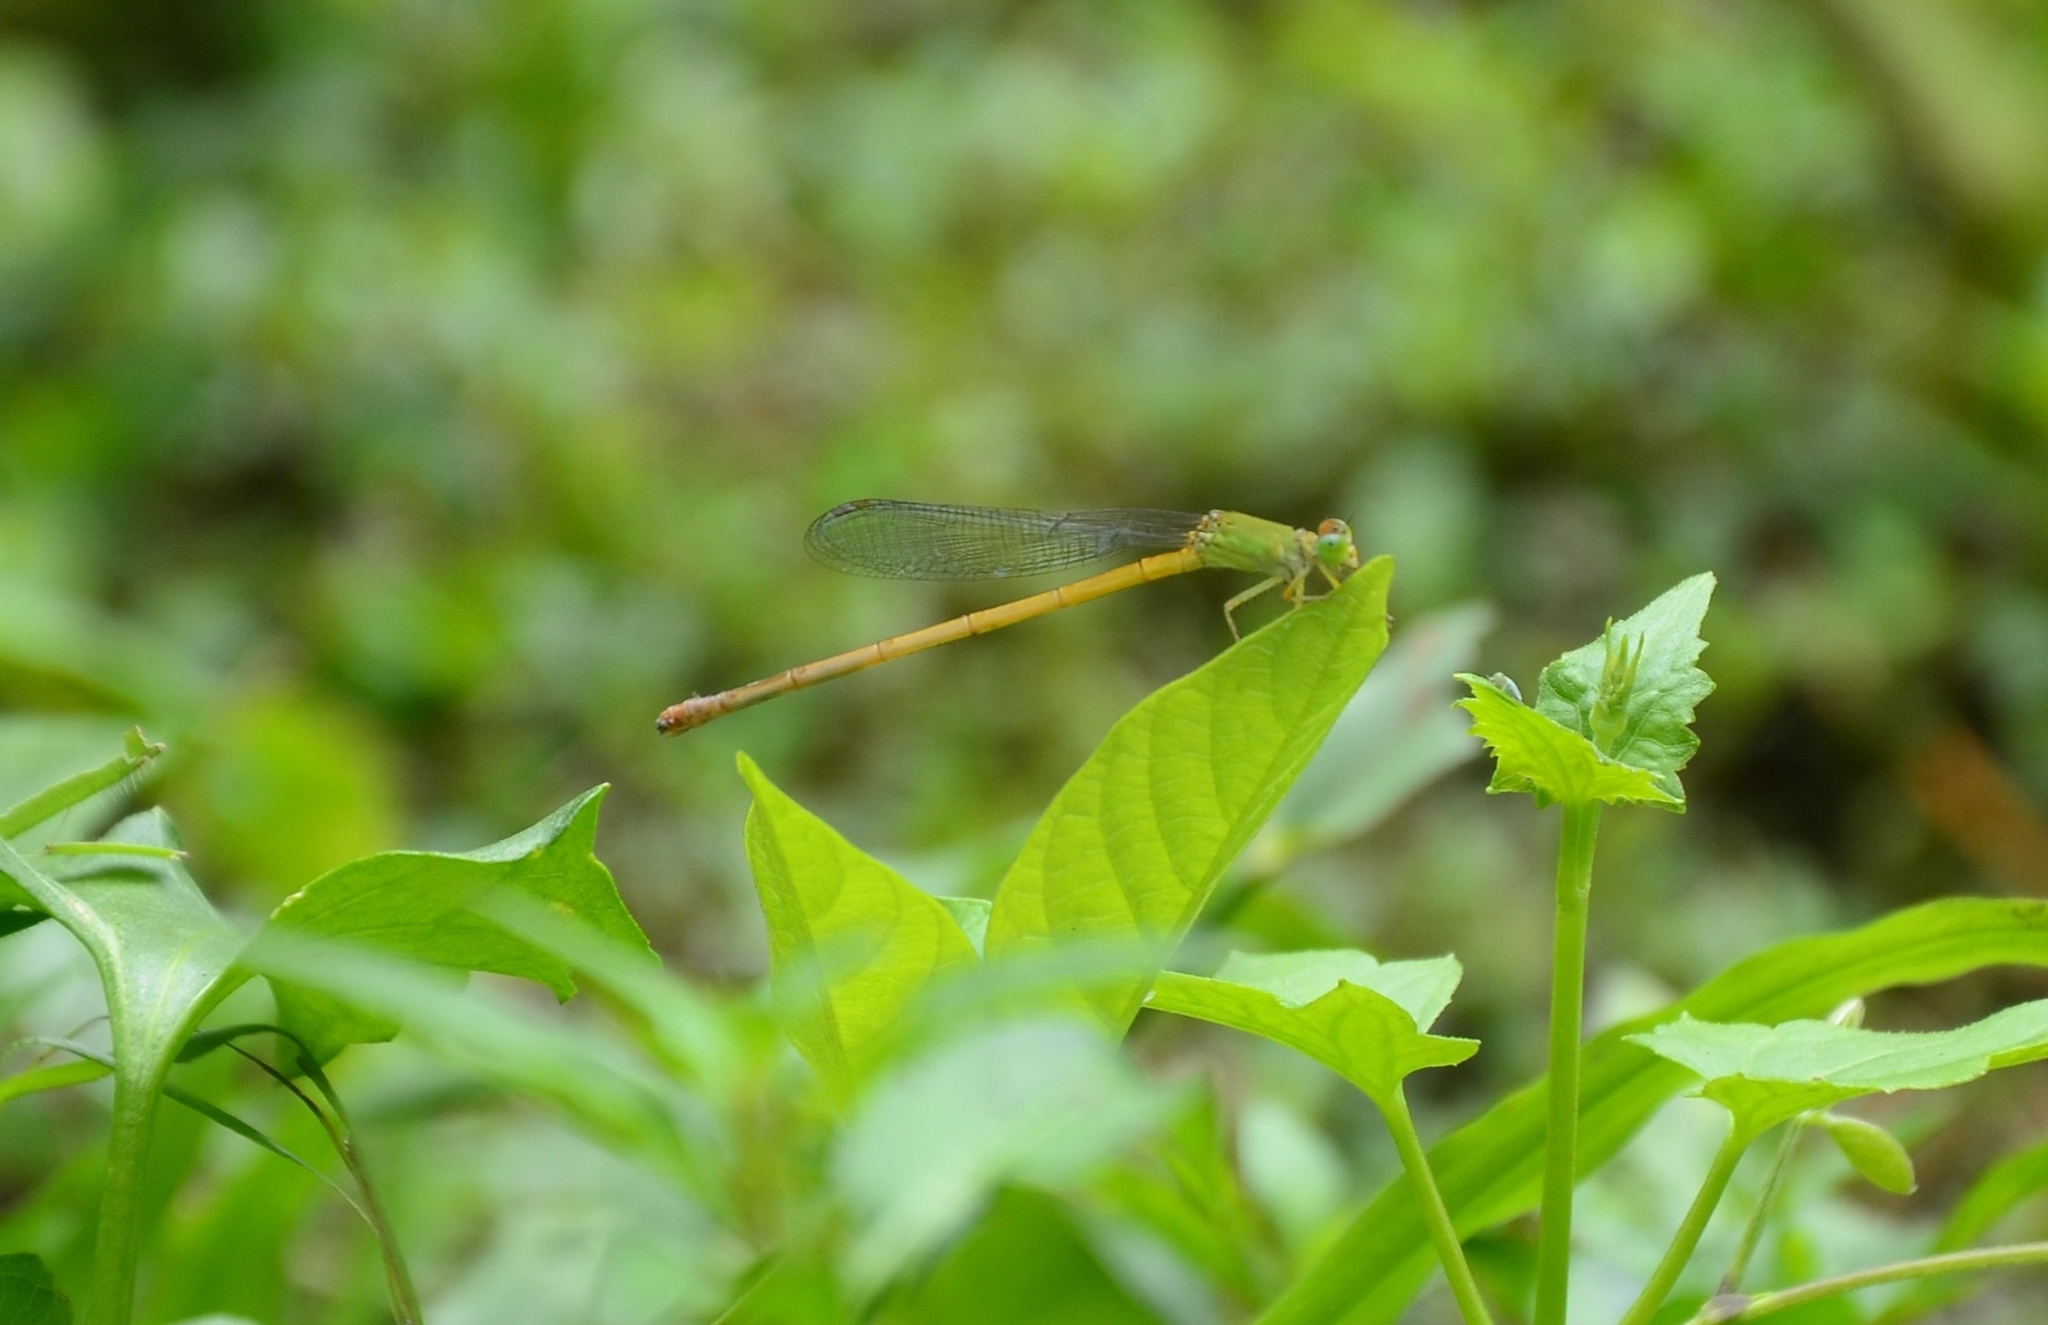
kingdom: Animalia
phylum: Arthropoda
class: Insecta
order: Odonata
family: Coenagrionidae
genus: Ceriagrion
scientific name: Ceriagrion coromandelianum
